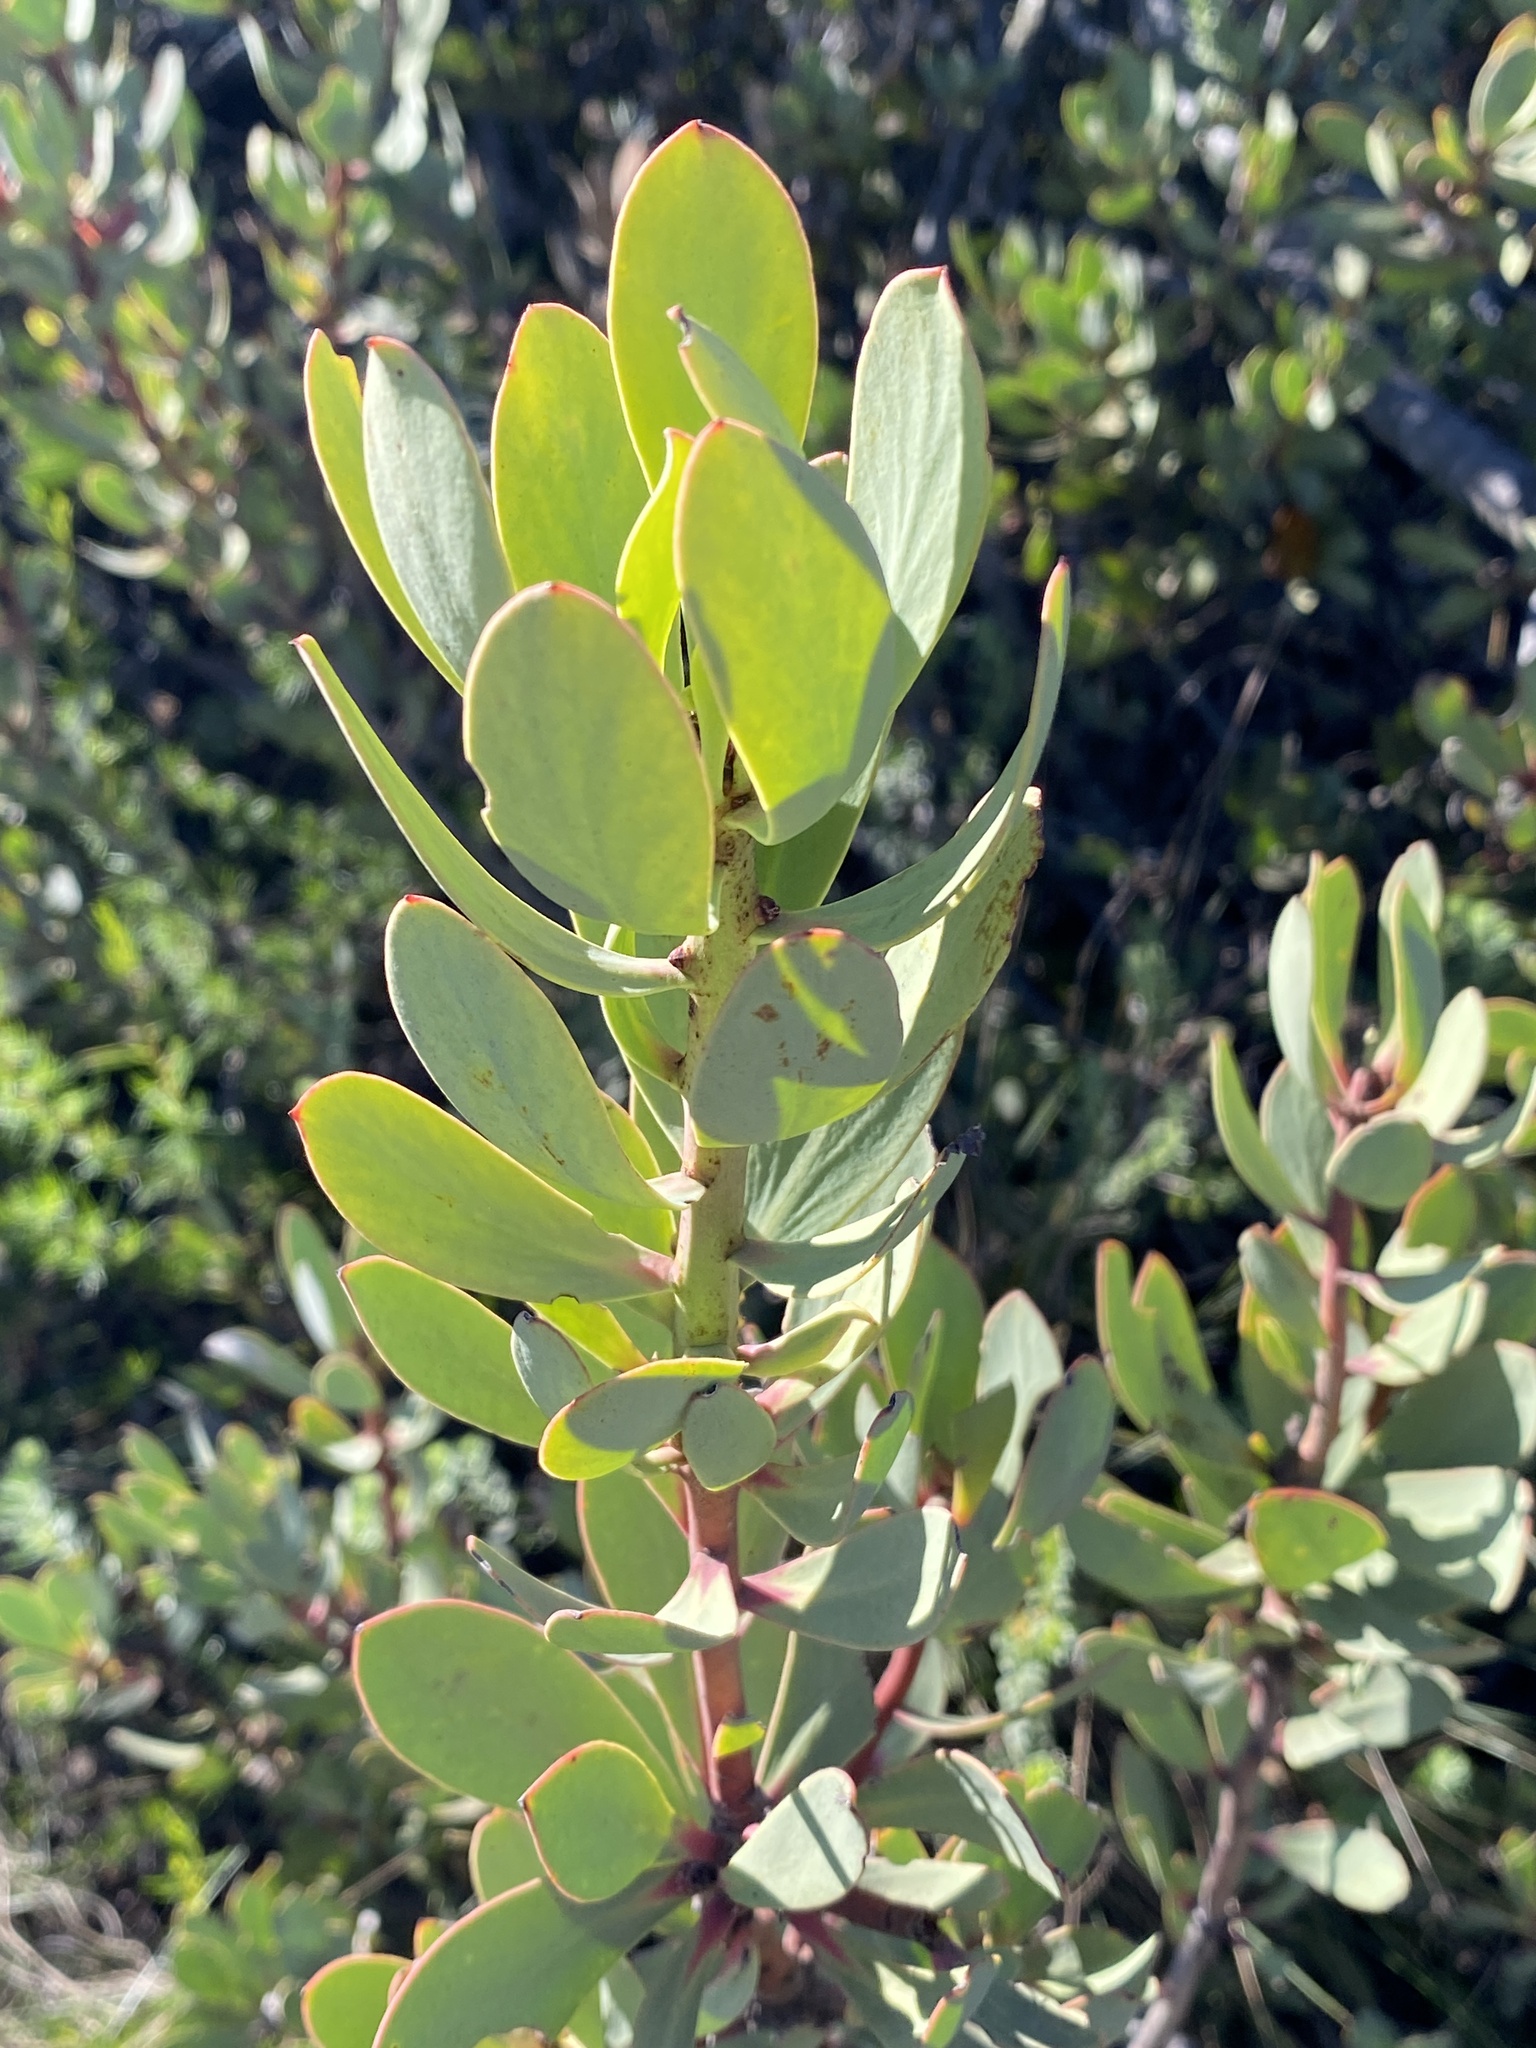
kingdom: Plantae
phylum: Tracheophyta
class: Magnoliopsida
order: Proteales
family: Proteaceae
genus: Protea
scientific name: Protea glabra
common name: Chestnut sugarbush
